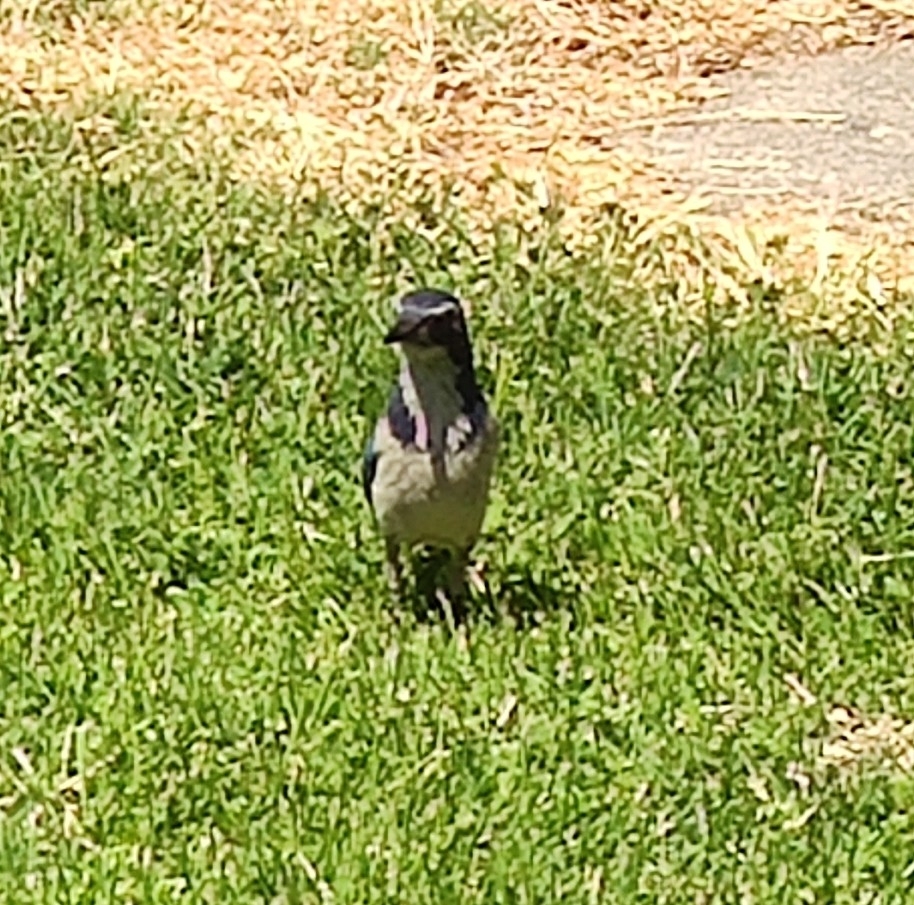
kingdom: Animalia
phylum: Chordata
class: Aves
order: Passeriformes
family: Corvidae
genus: Aphelocoma
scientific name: Aphelocoma californica
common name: California scrub-jay
